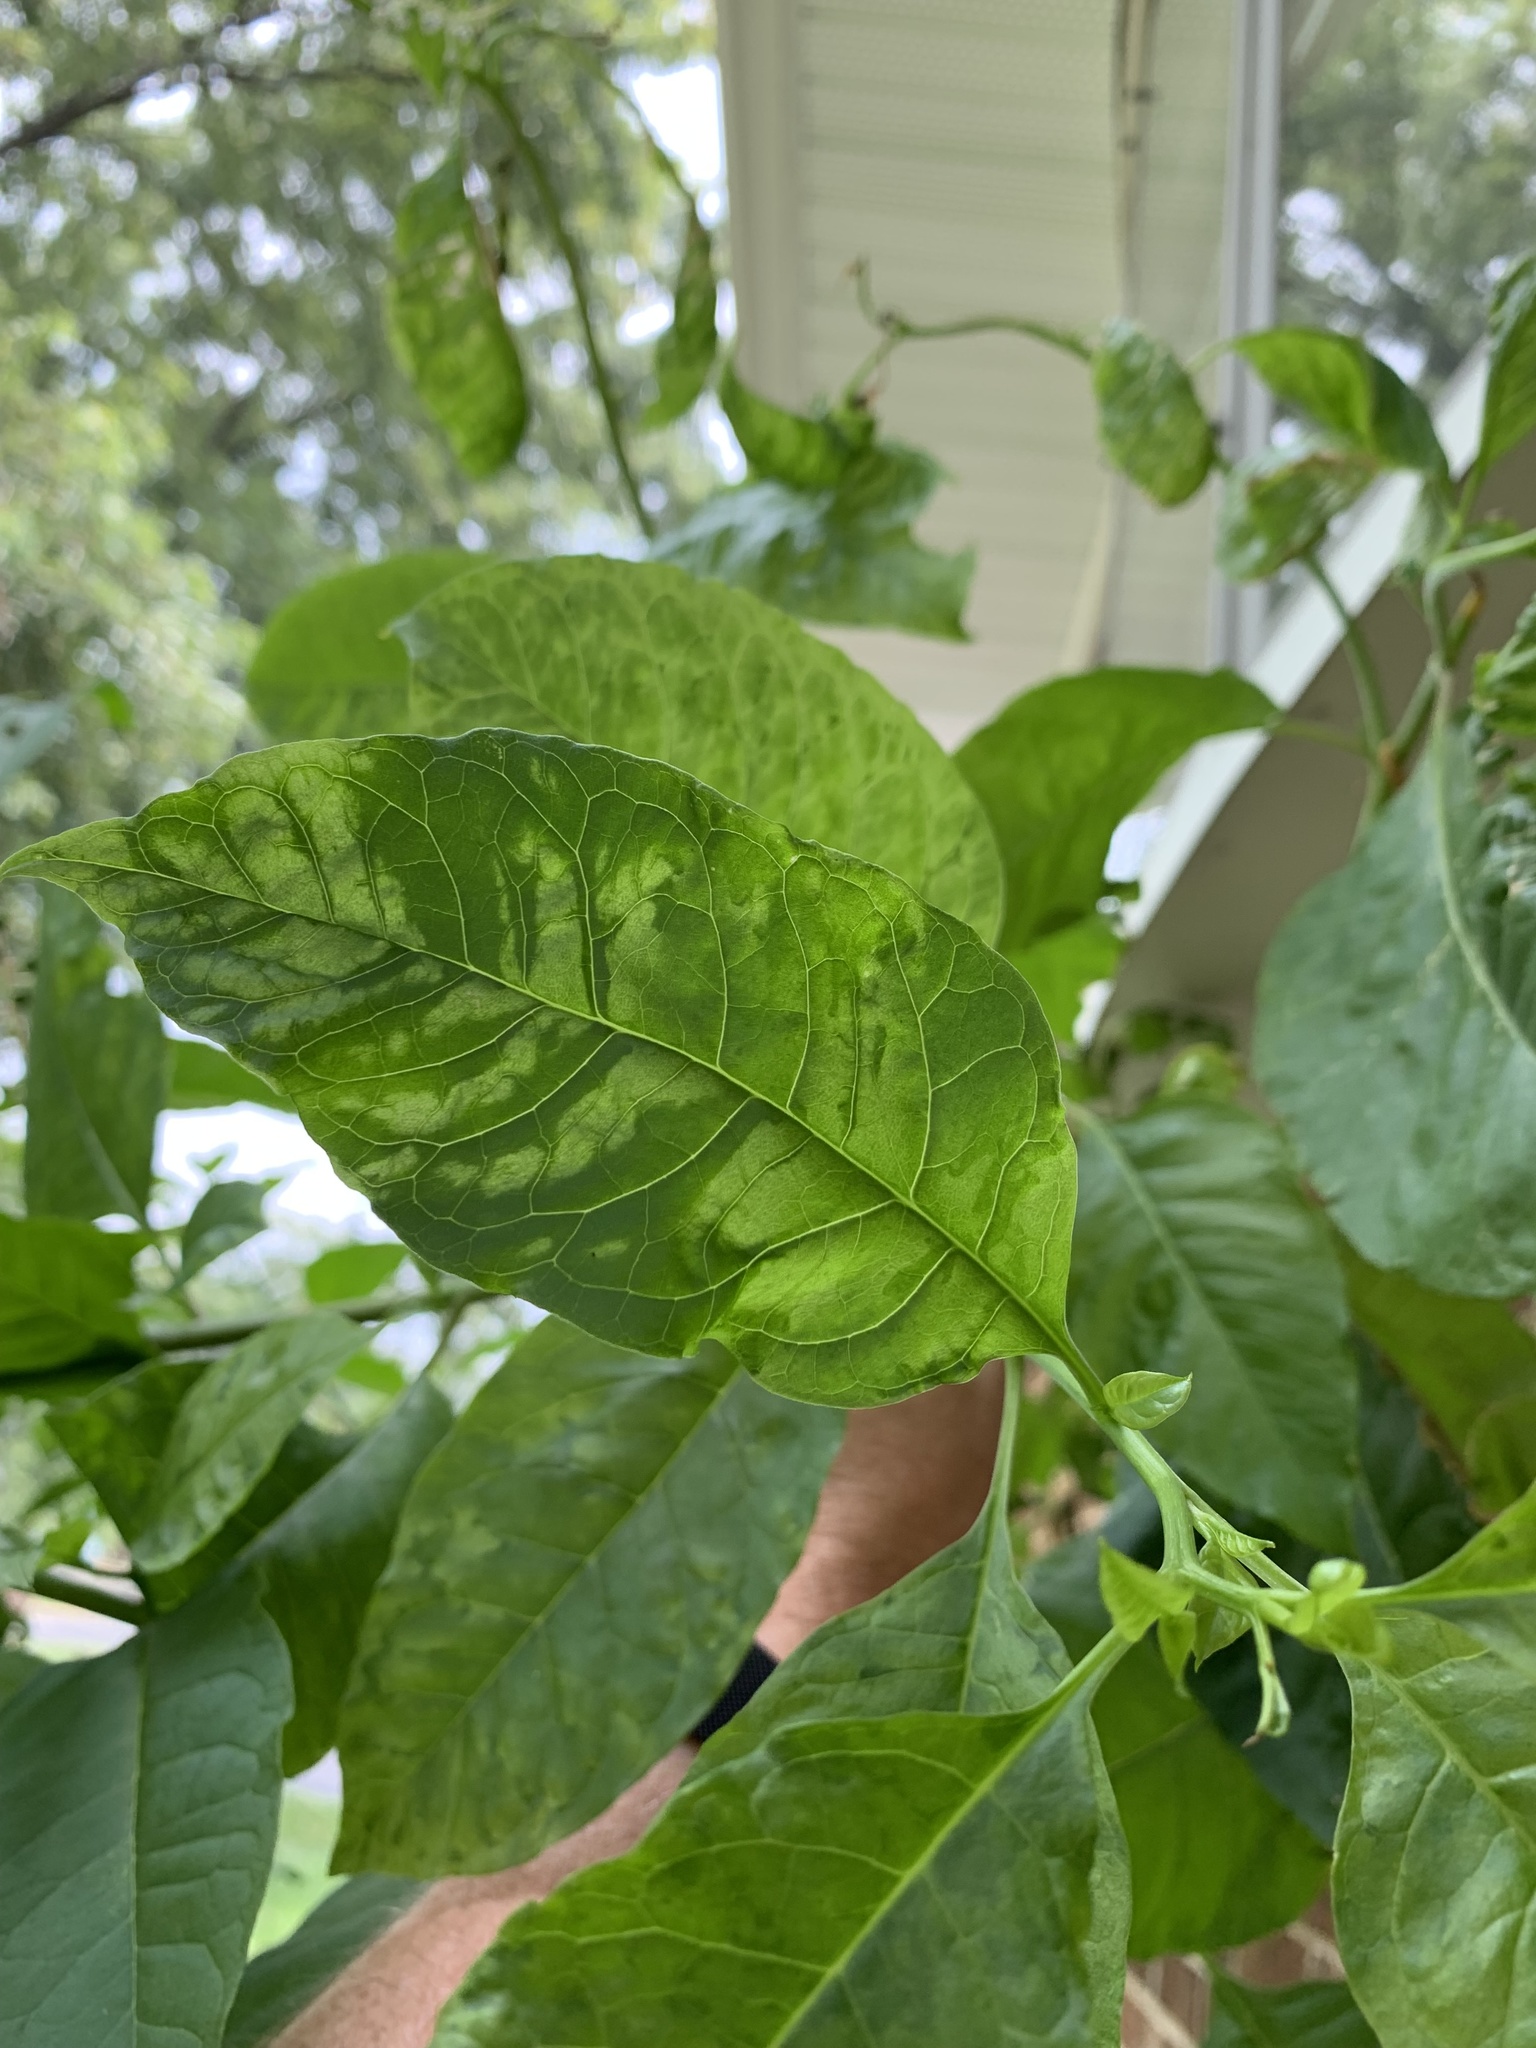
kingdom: Viruses
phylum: Pisuviricota
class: Stelpaviricetes
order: Patatavirales
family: Potyviridae
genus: Potyvirus
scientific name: Potyvirus Pokeweed mosaic virus
